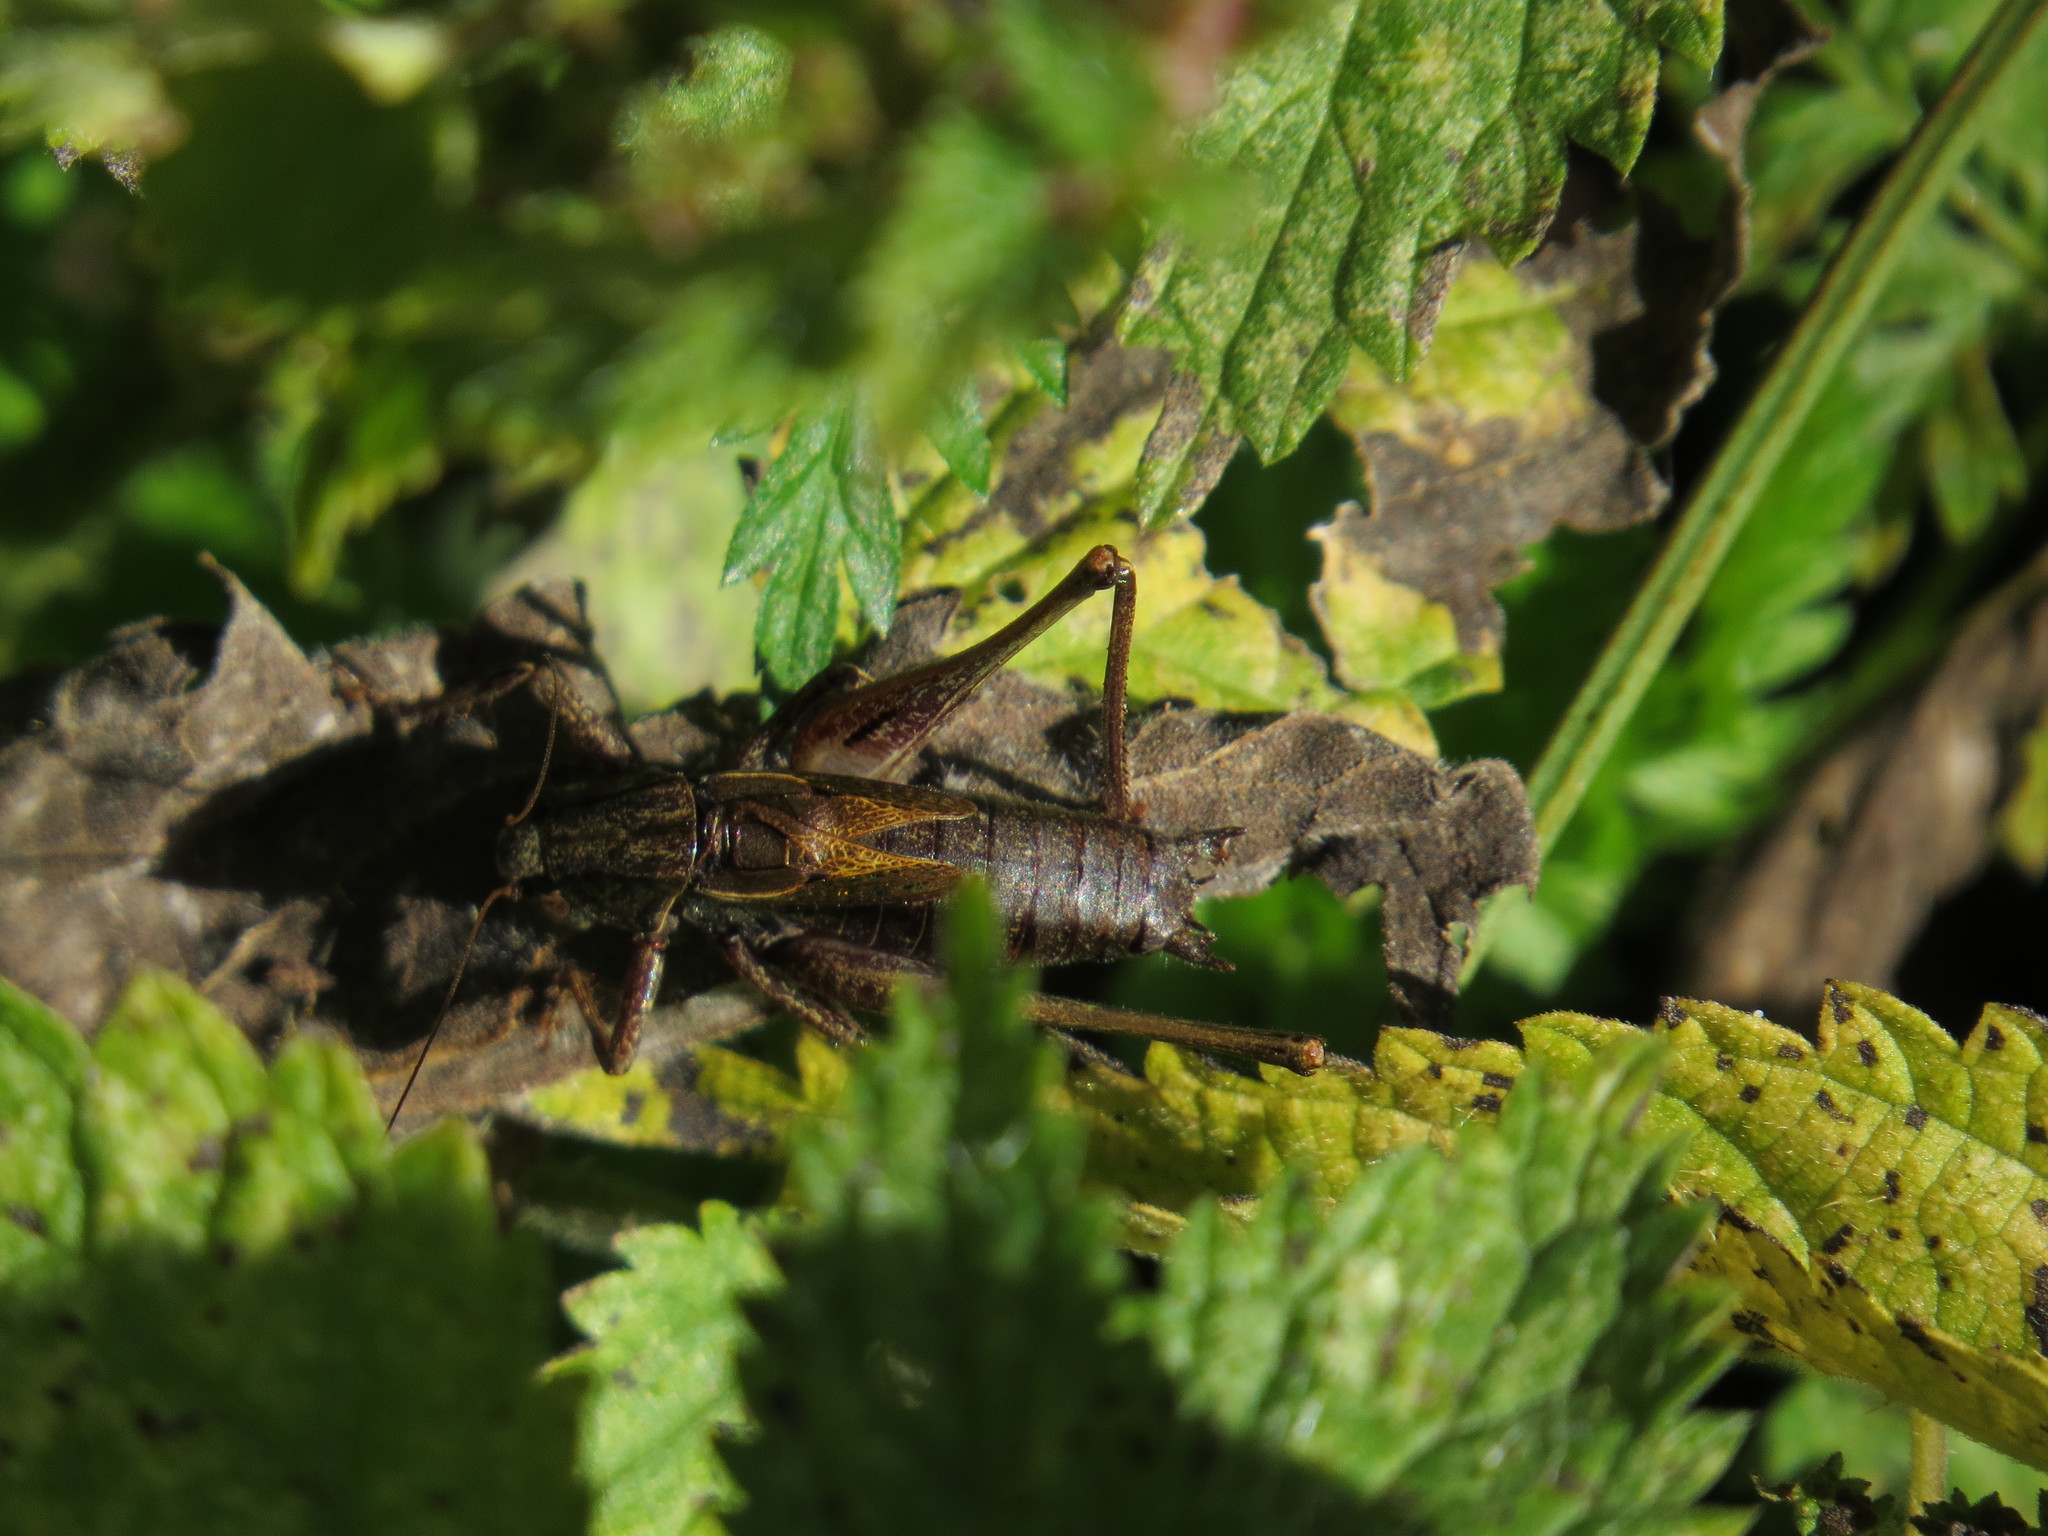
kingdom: Animalia
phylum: Arthropoda
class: Insecta
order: Orthoptera
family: Tettigoniidae
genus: Metrioptera
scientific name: Metrioptera saussuriana
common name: Purple meadow bush-cricket
